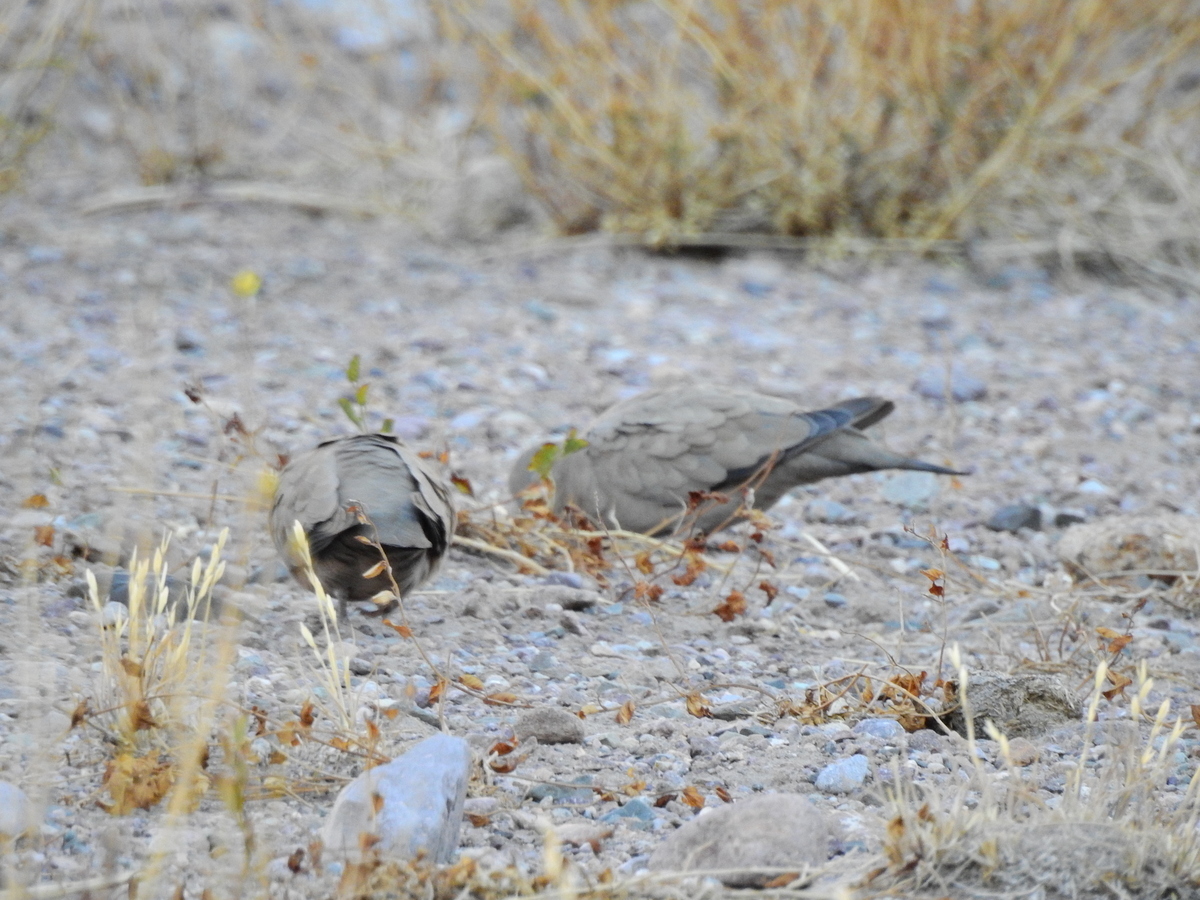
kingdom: Animalia
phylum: Chordata
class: Aves
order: Columbiformes
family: Columbidae
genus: Metriopelia
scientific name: Metriopelia melanoptera
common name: Black-winged ground dove
